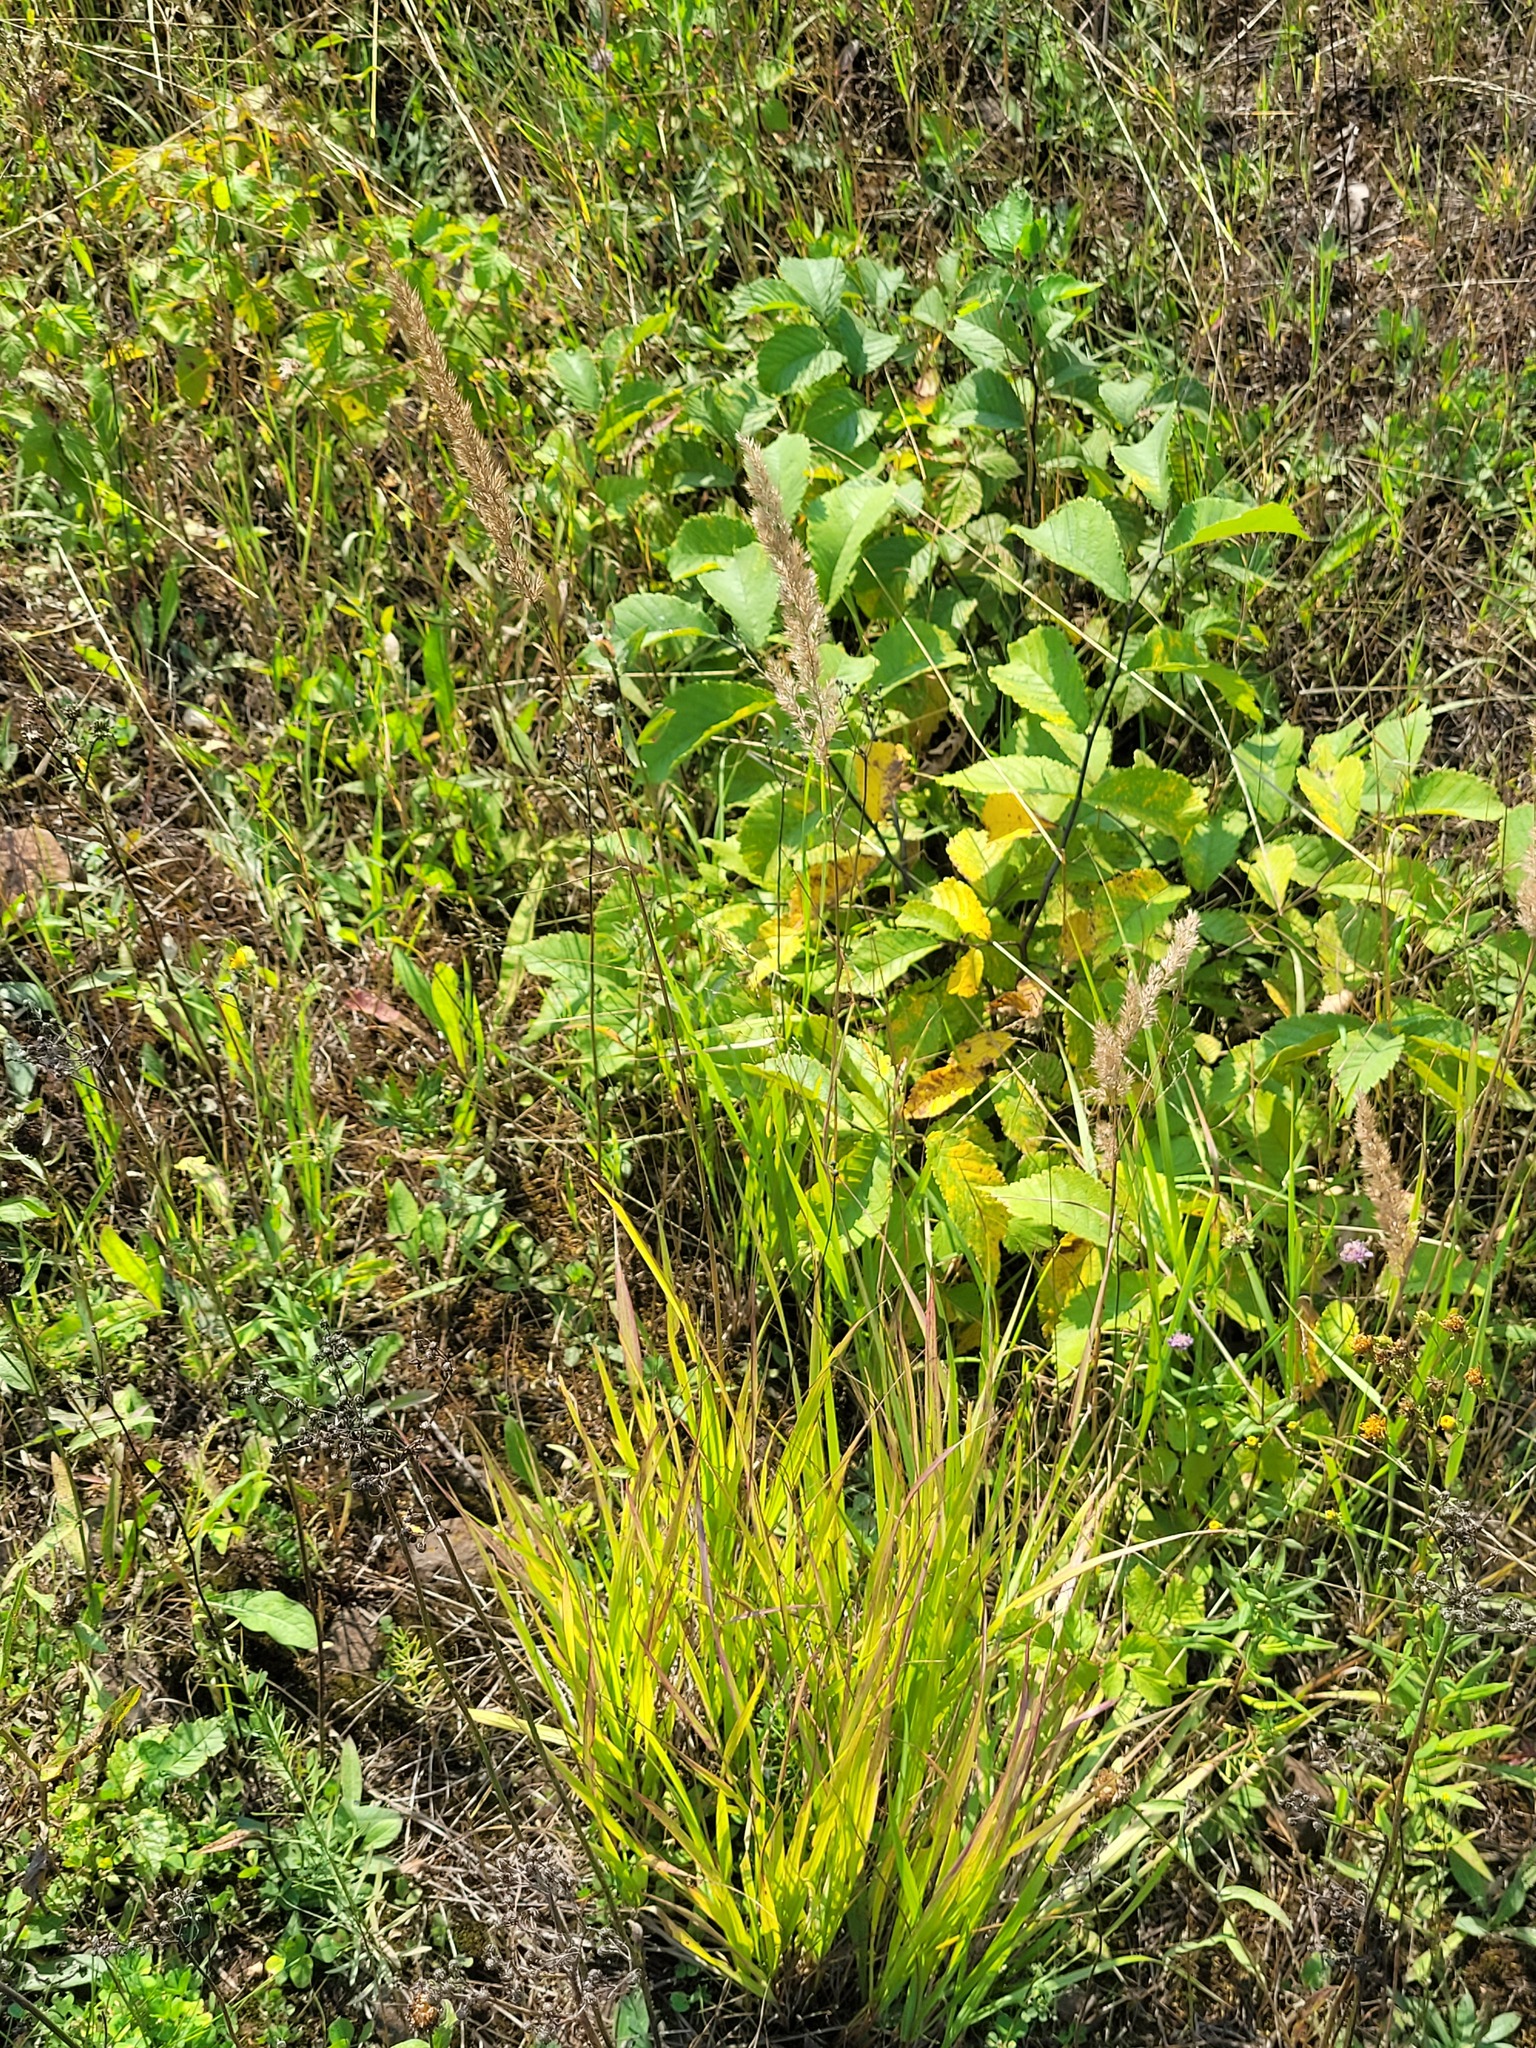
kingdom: Plantae
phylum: Tracheophyta
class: Liliopsida
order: Poales
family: Poaceae
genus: Calamagrostis
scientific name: Calamagrostis epigejos
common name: Wood small-reed
